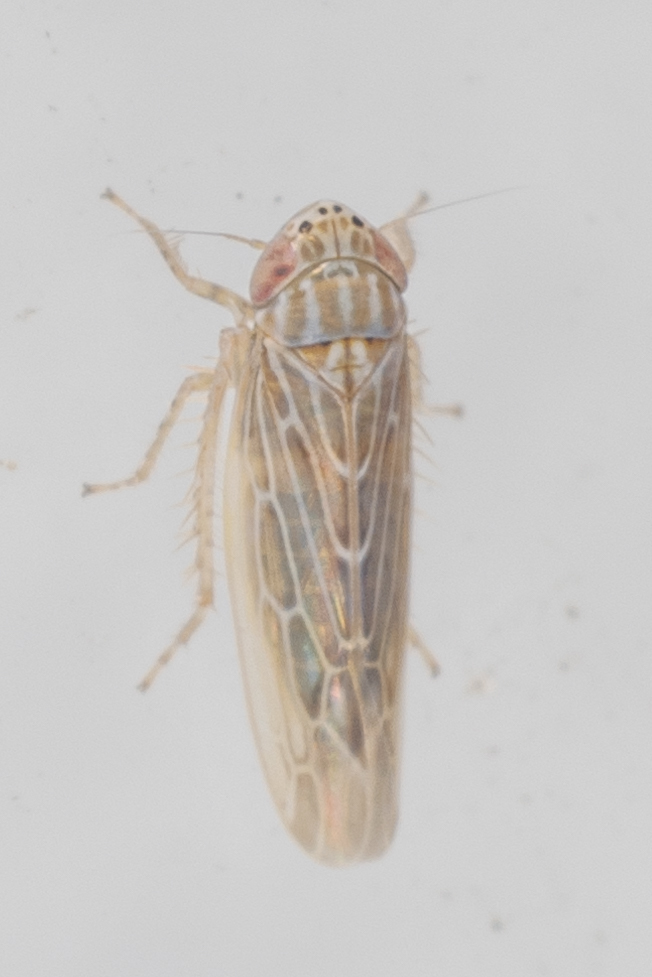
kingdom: Animalia
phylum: Arthropoda
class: Insecta
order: Hemiptera
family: Cicadellidae
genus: Graminella
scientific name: Graminella sonora
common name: Lesser lawn leafhopper
